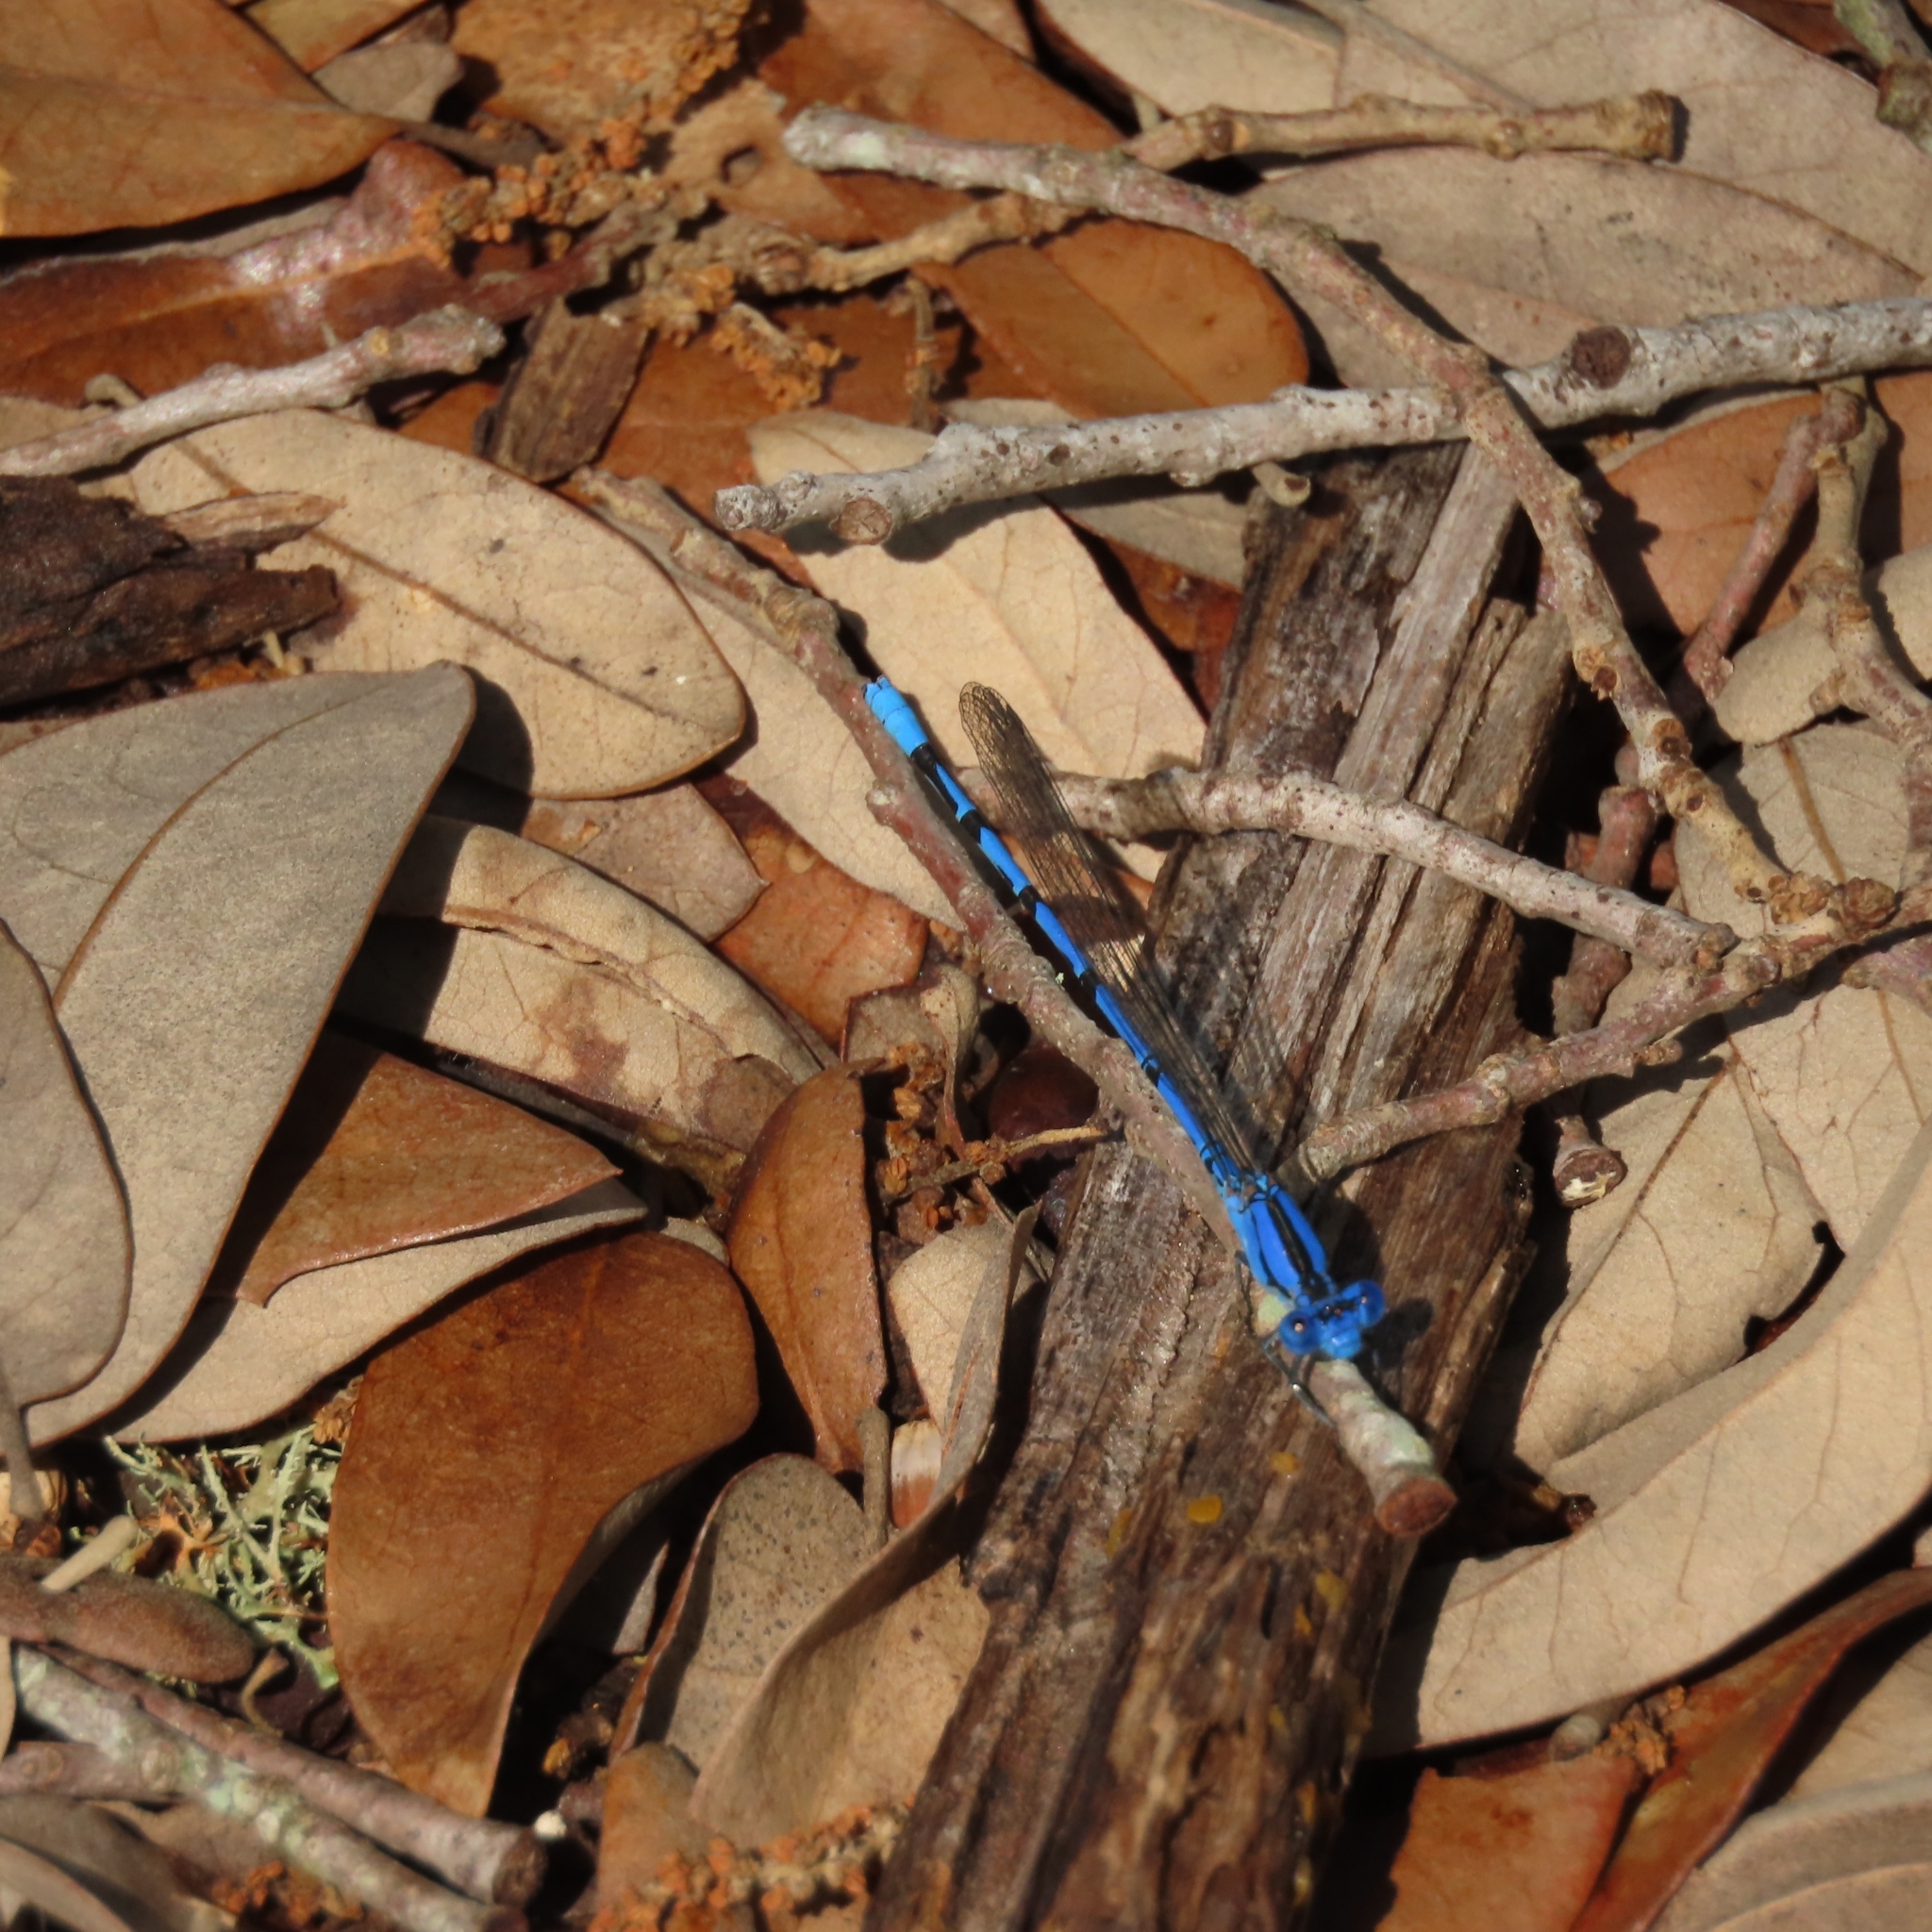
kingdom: Animalia
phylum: Arthropoda
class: Insecta
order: Odonata
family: Coenagrionidae
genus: Argia
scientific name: Argia funebris
